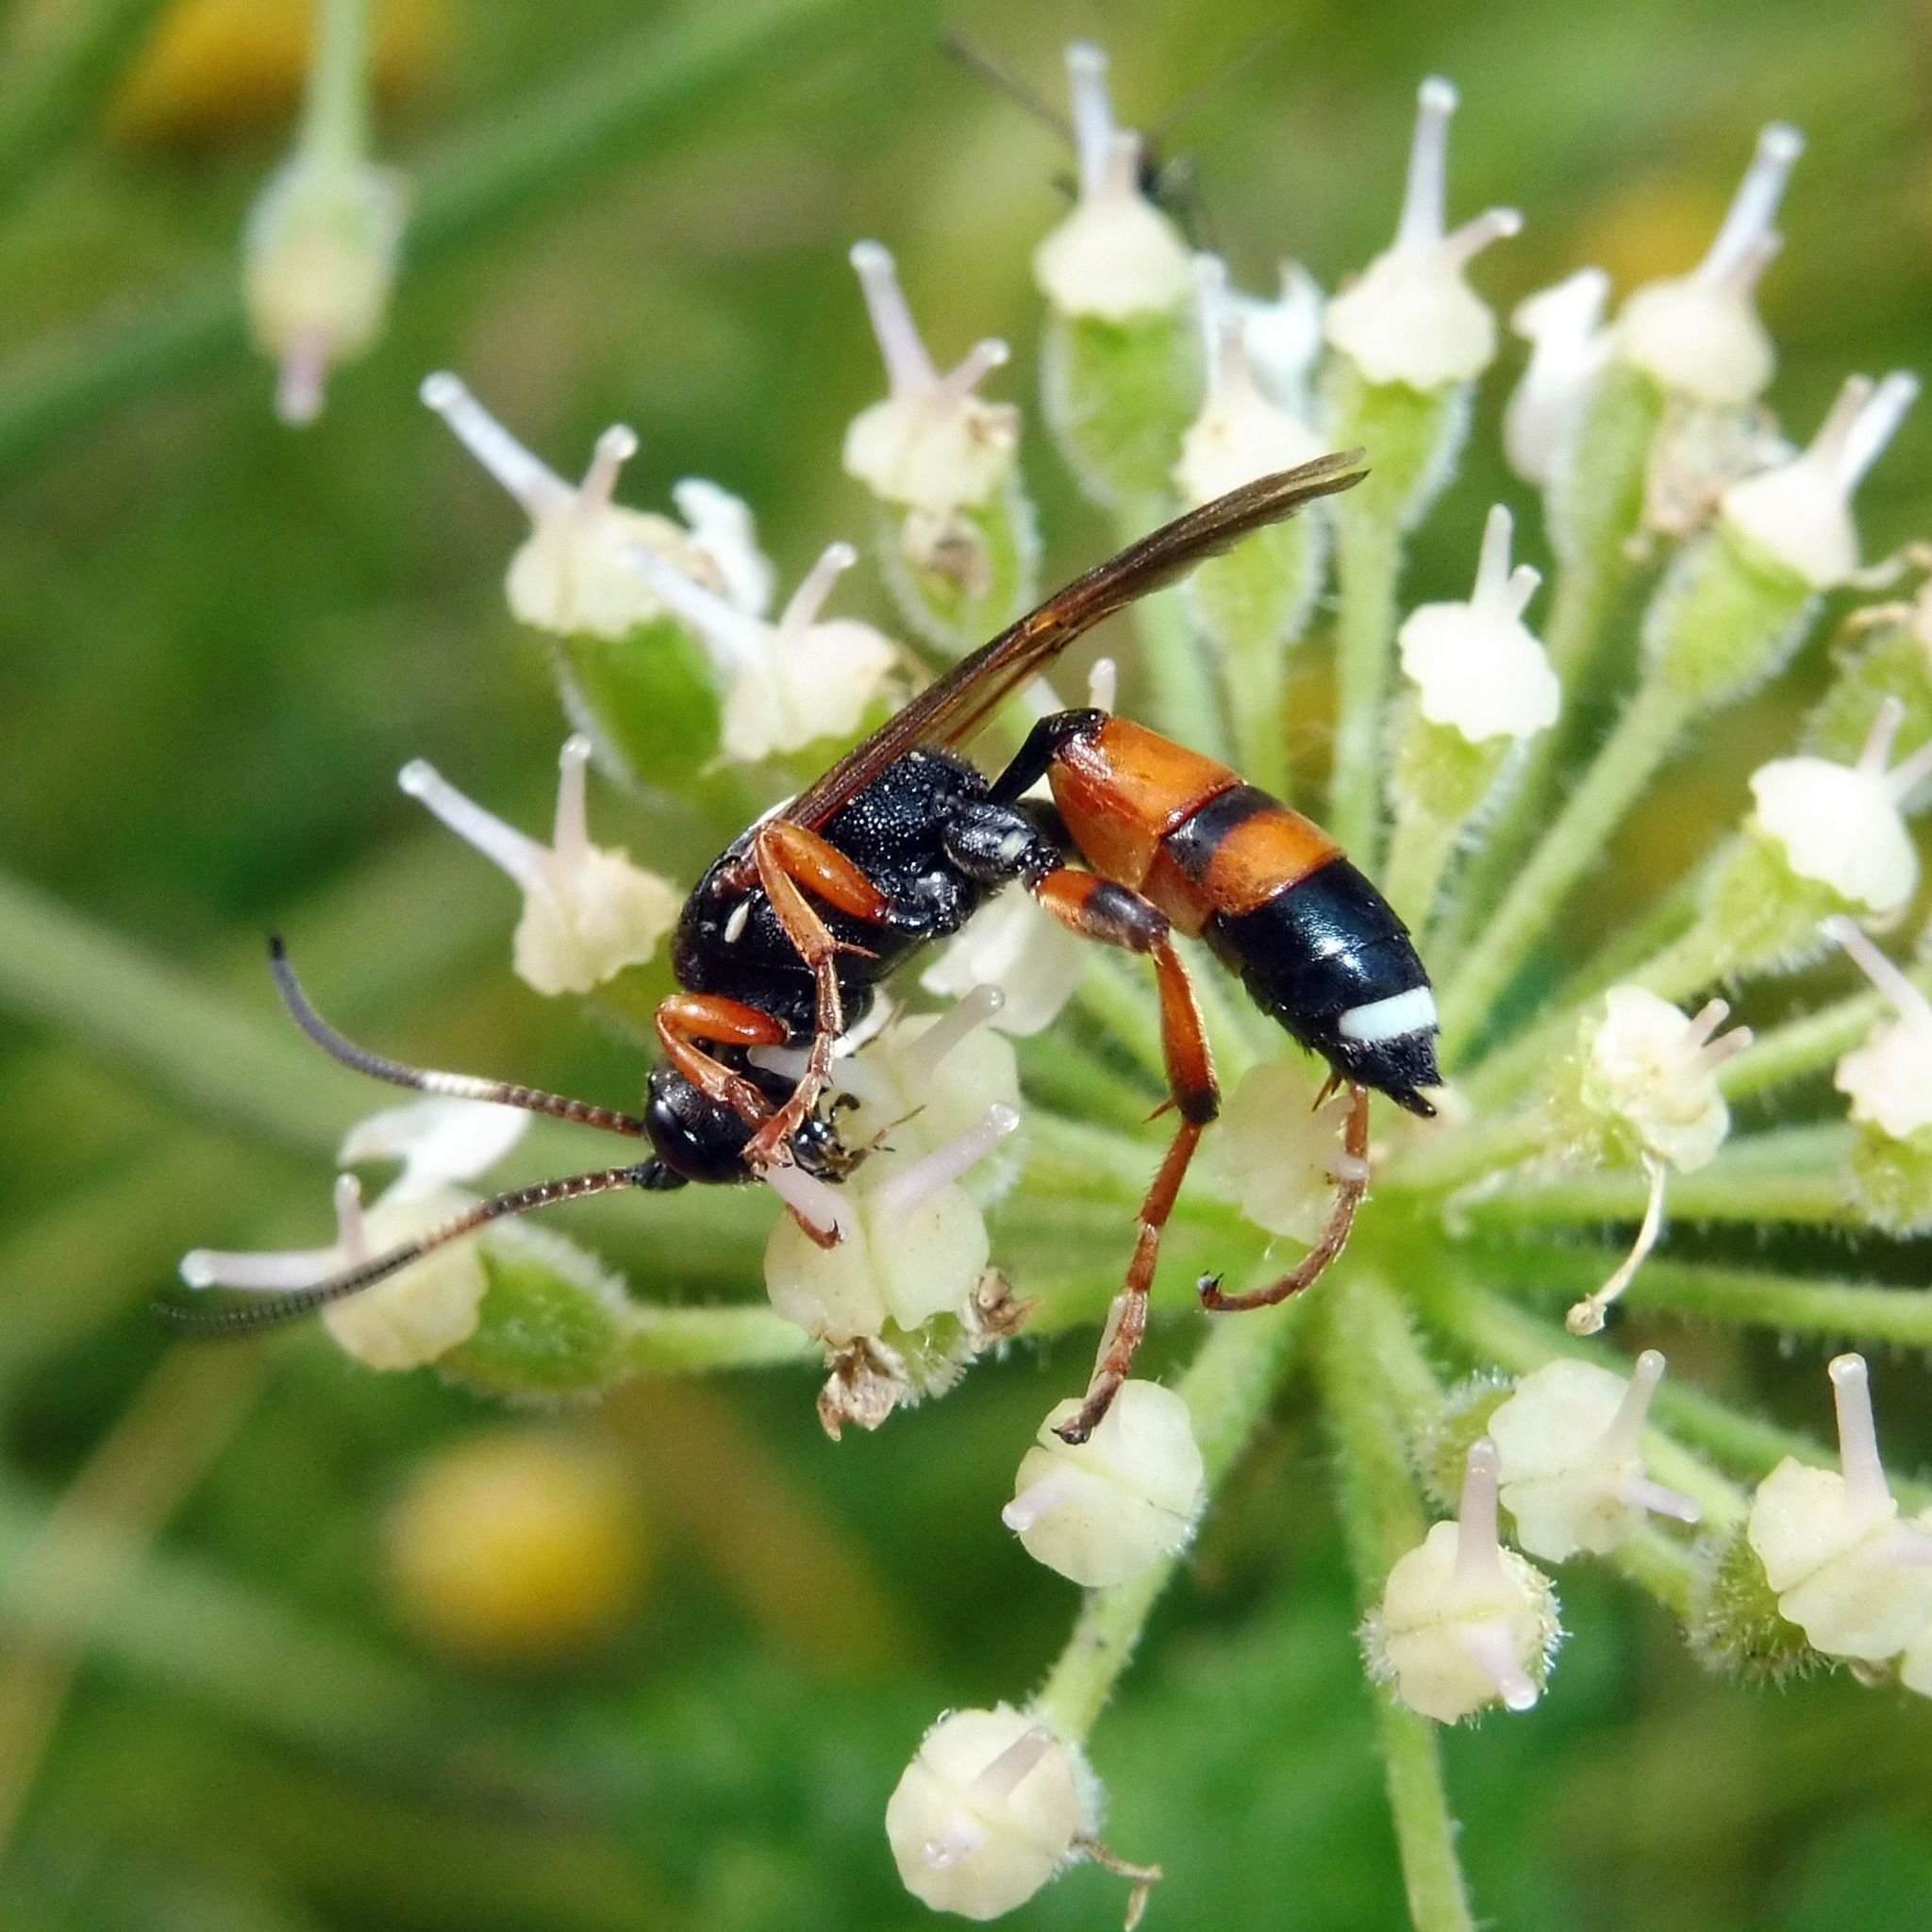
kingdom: Animalia
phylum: Arthropoda
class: Insecta
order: Hymenoptera
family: Ichneumonidae
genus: Ichneumon
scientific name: Ichneumon sarcitorius
